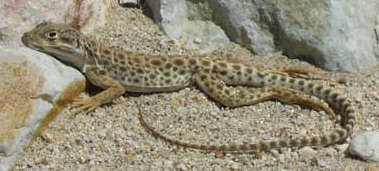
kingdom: Animalia
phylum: Chordata
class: Squamata
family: Crotaphytidae
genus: Gambelia
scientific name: Gambelia wislizenii
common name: Longnose leopard lizard
